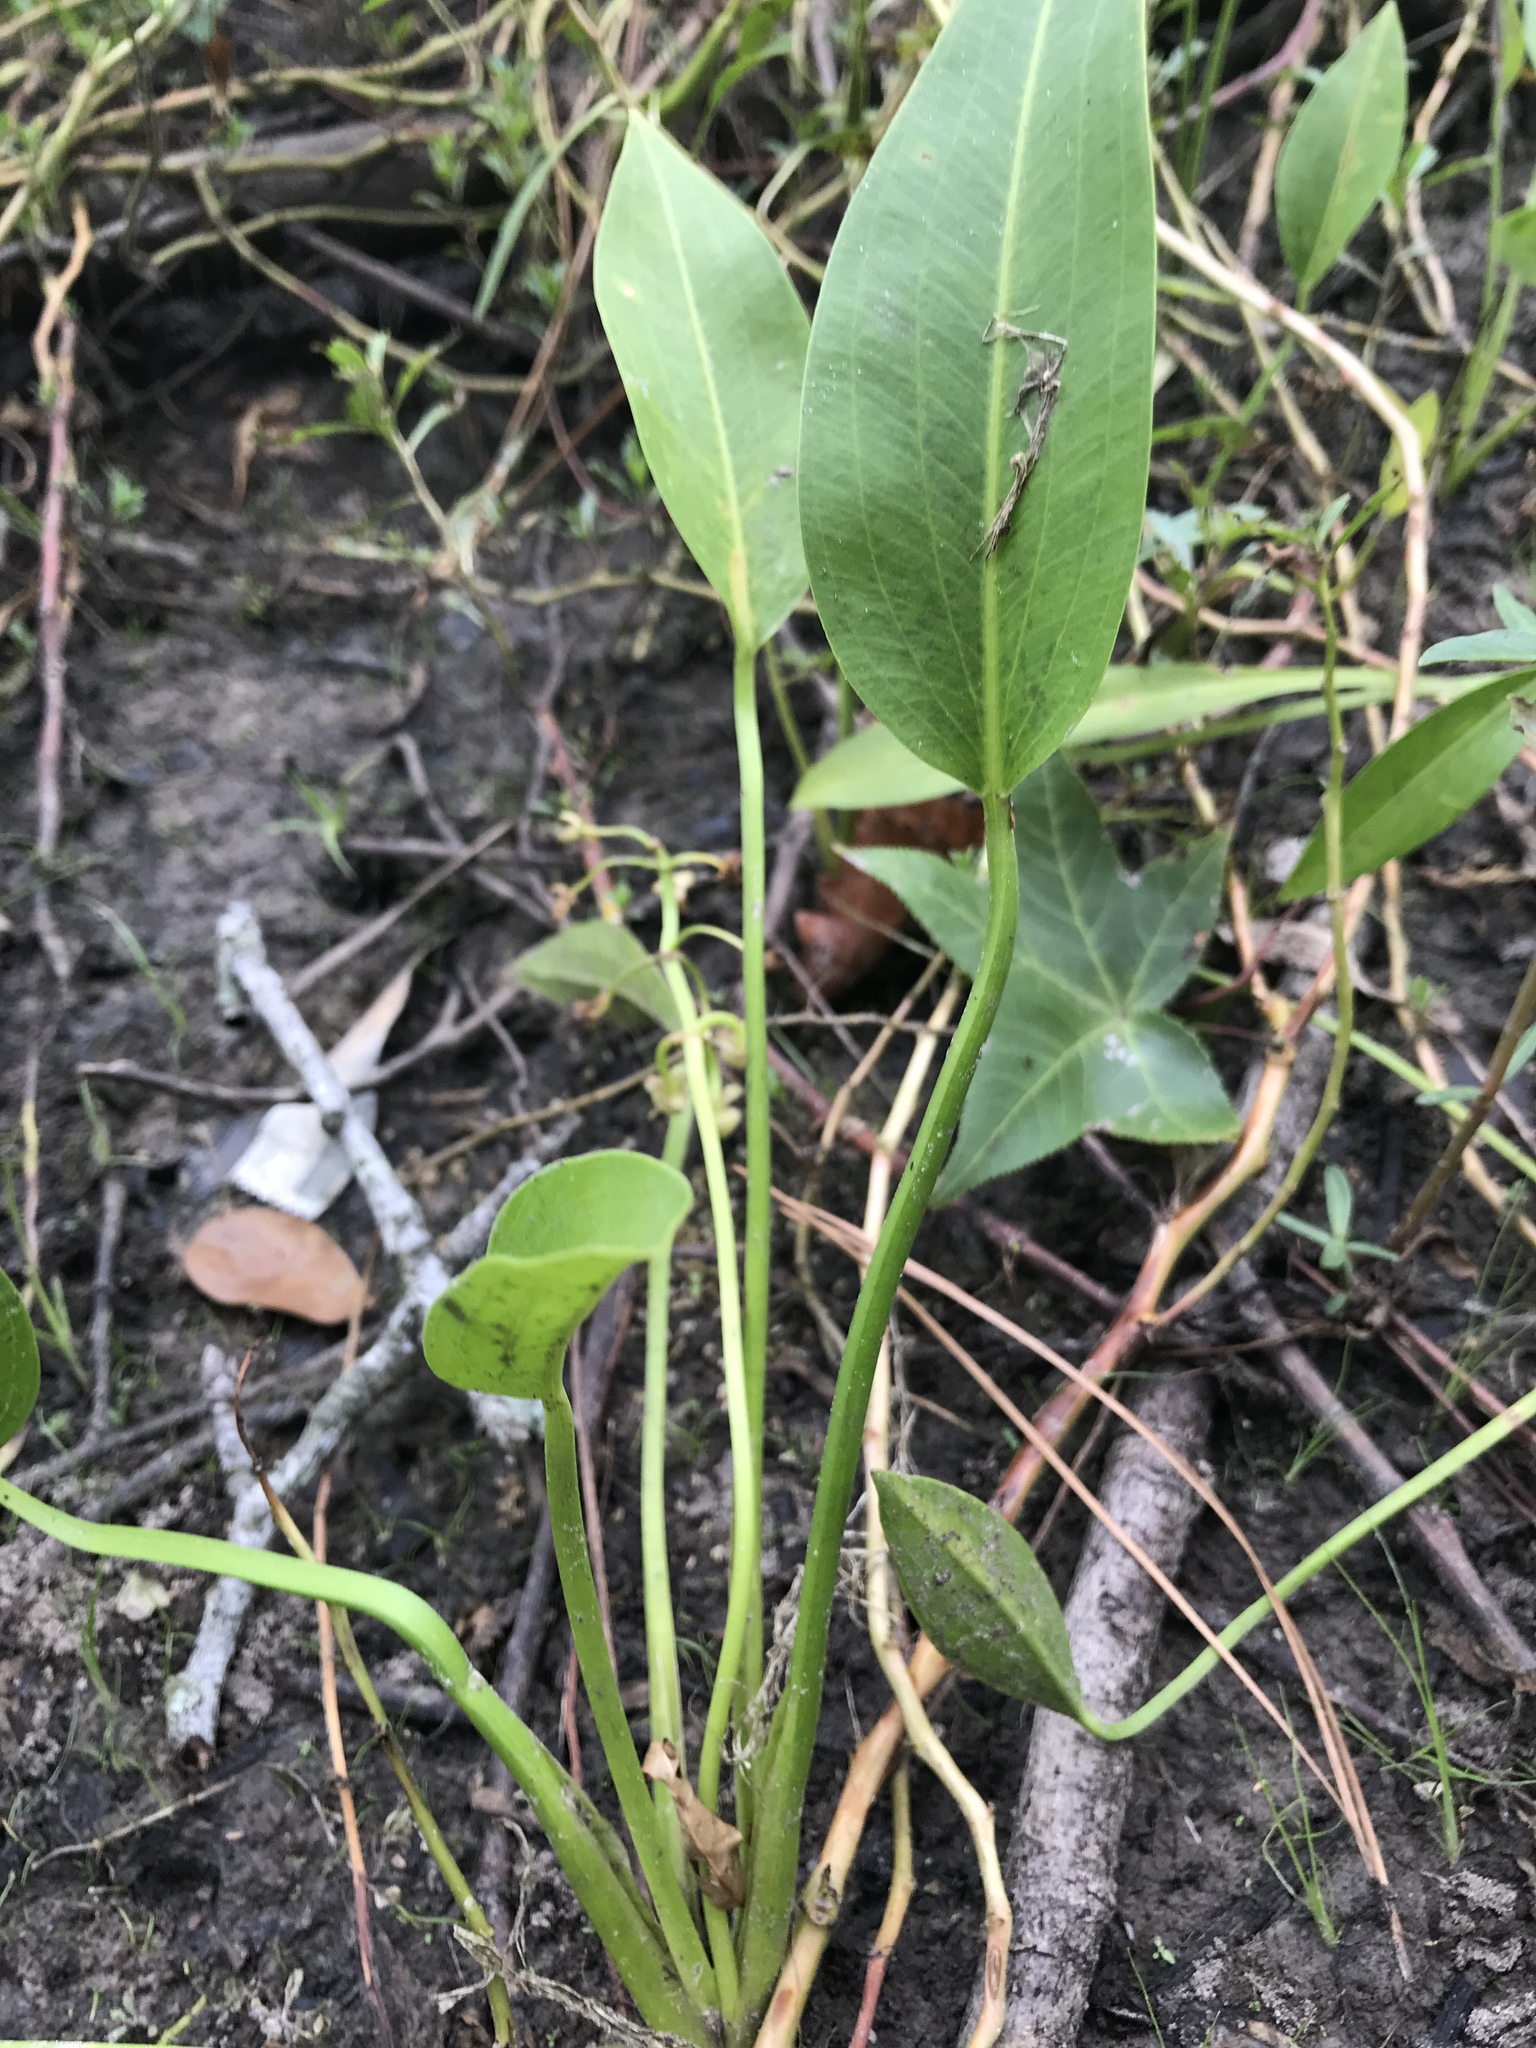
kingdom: Plantae
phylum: Tracheophyta
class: Liliopsida
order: Alismatales
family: Alismataceae
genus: Sagittaria
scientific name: Sagittaria platyphylla
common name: Broad-leaf arrowhead
